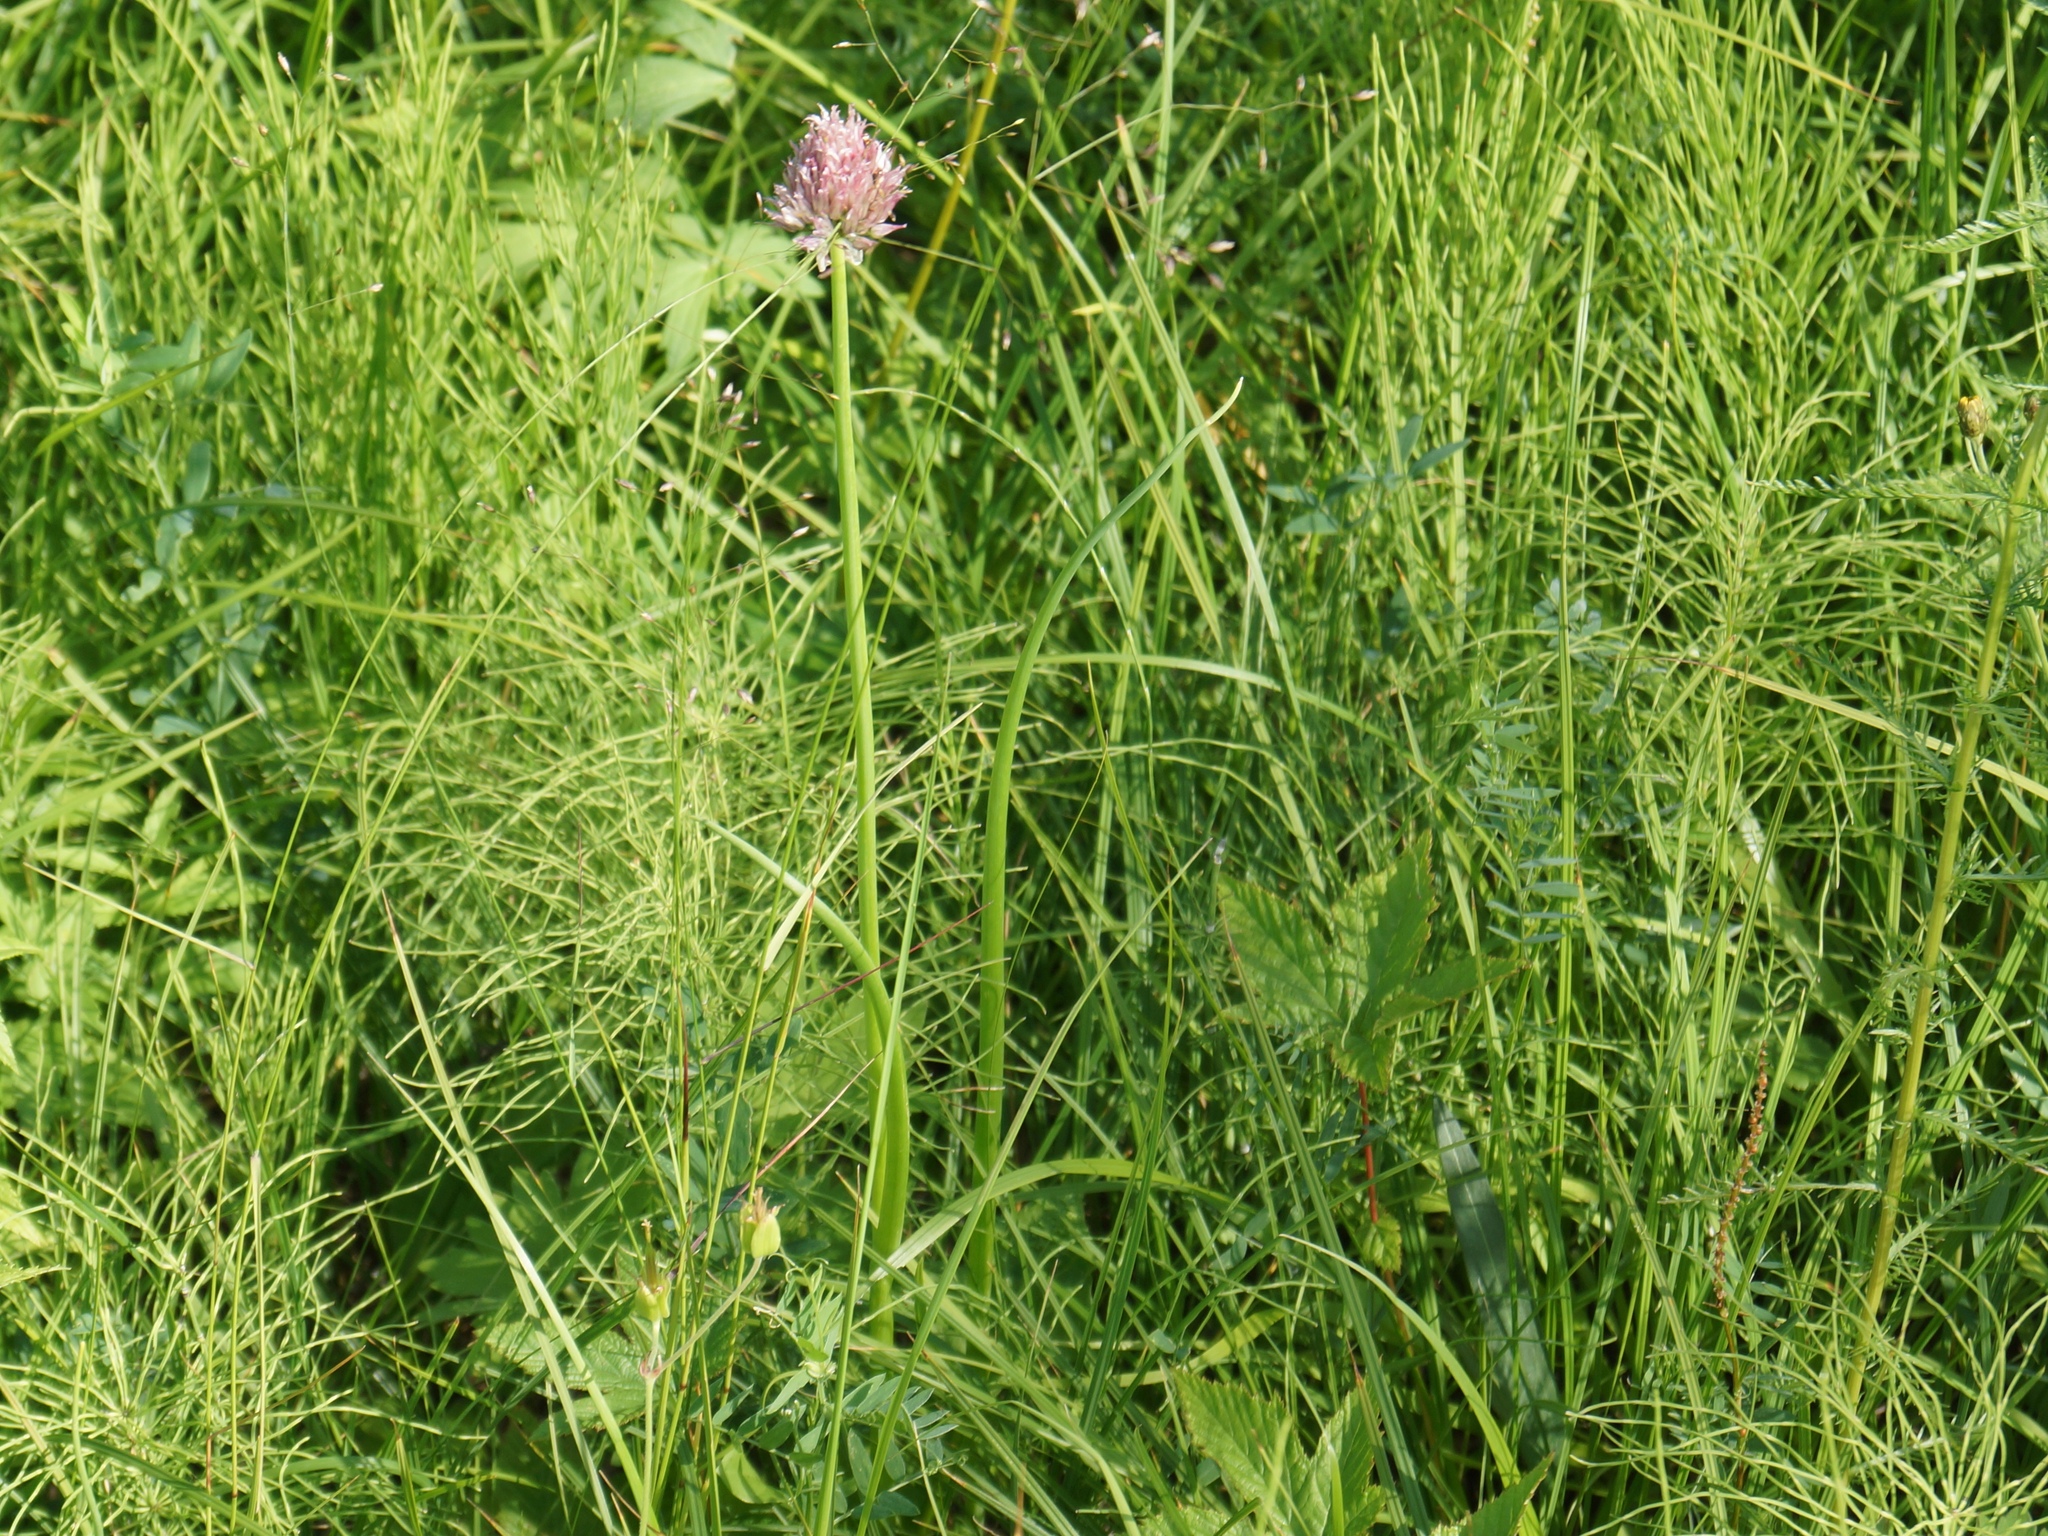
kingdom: Plantae
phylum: Tracheophyta
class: Liliopsida
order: Asparagales
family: Amaryllidaceae
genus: Allium
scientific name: Allium schoenoprasum
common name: Chives
